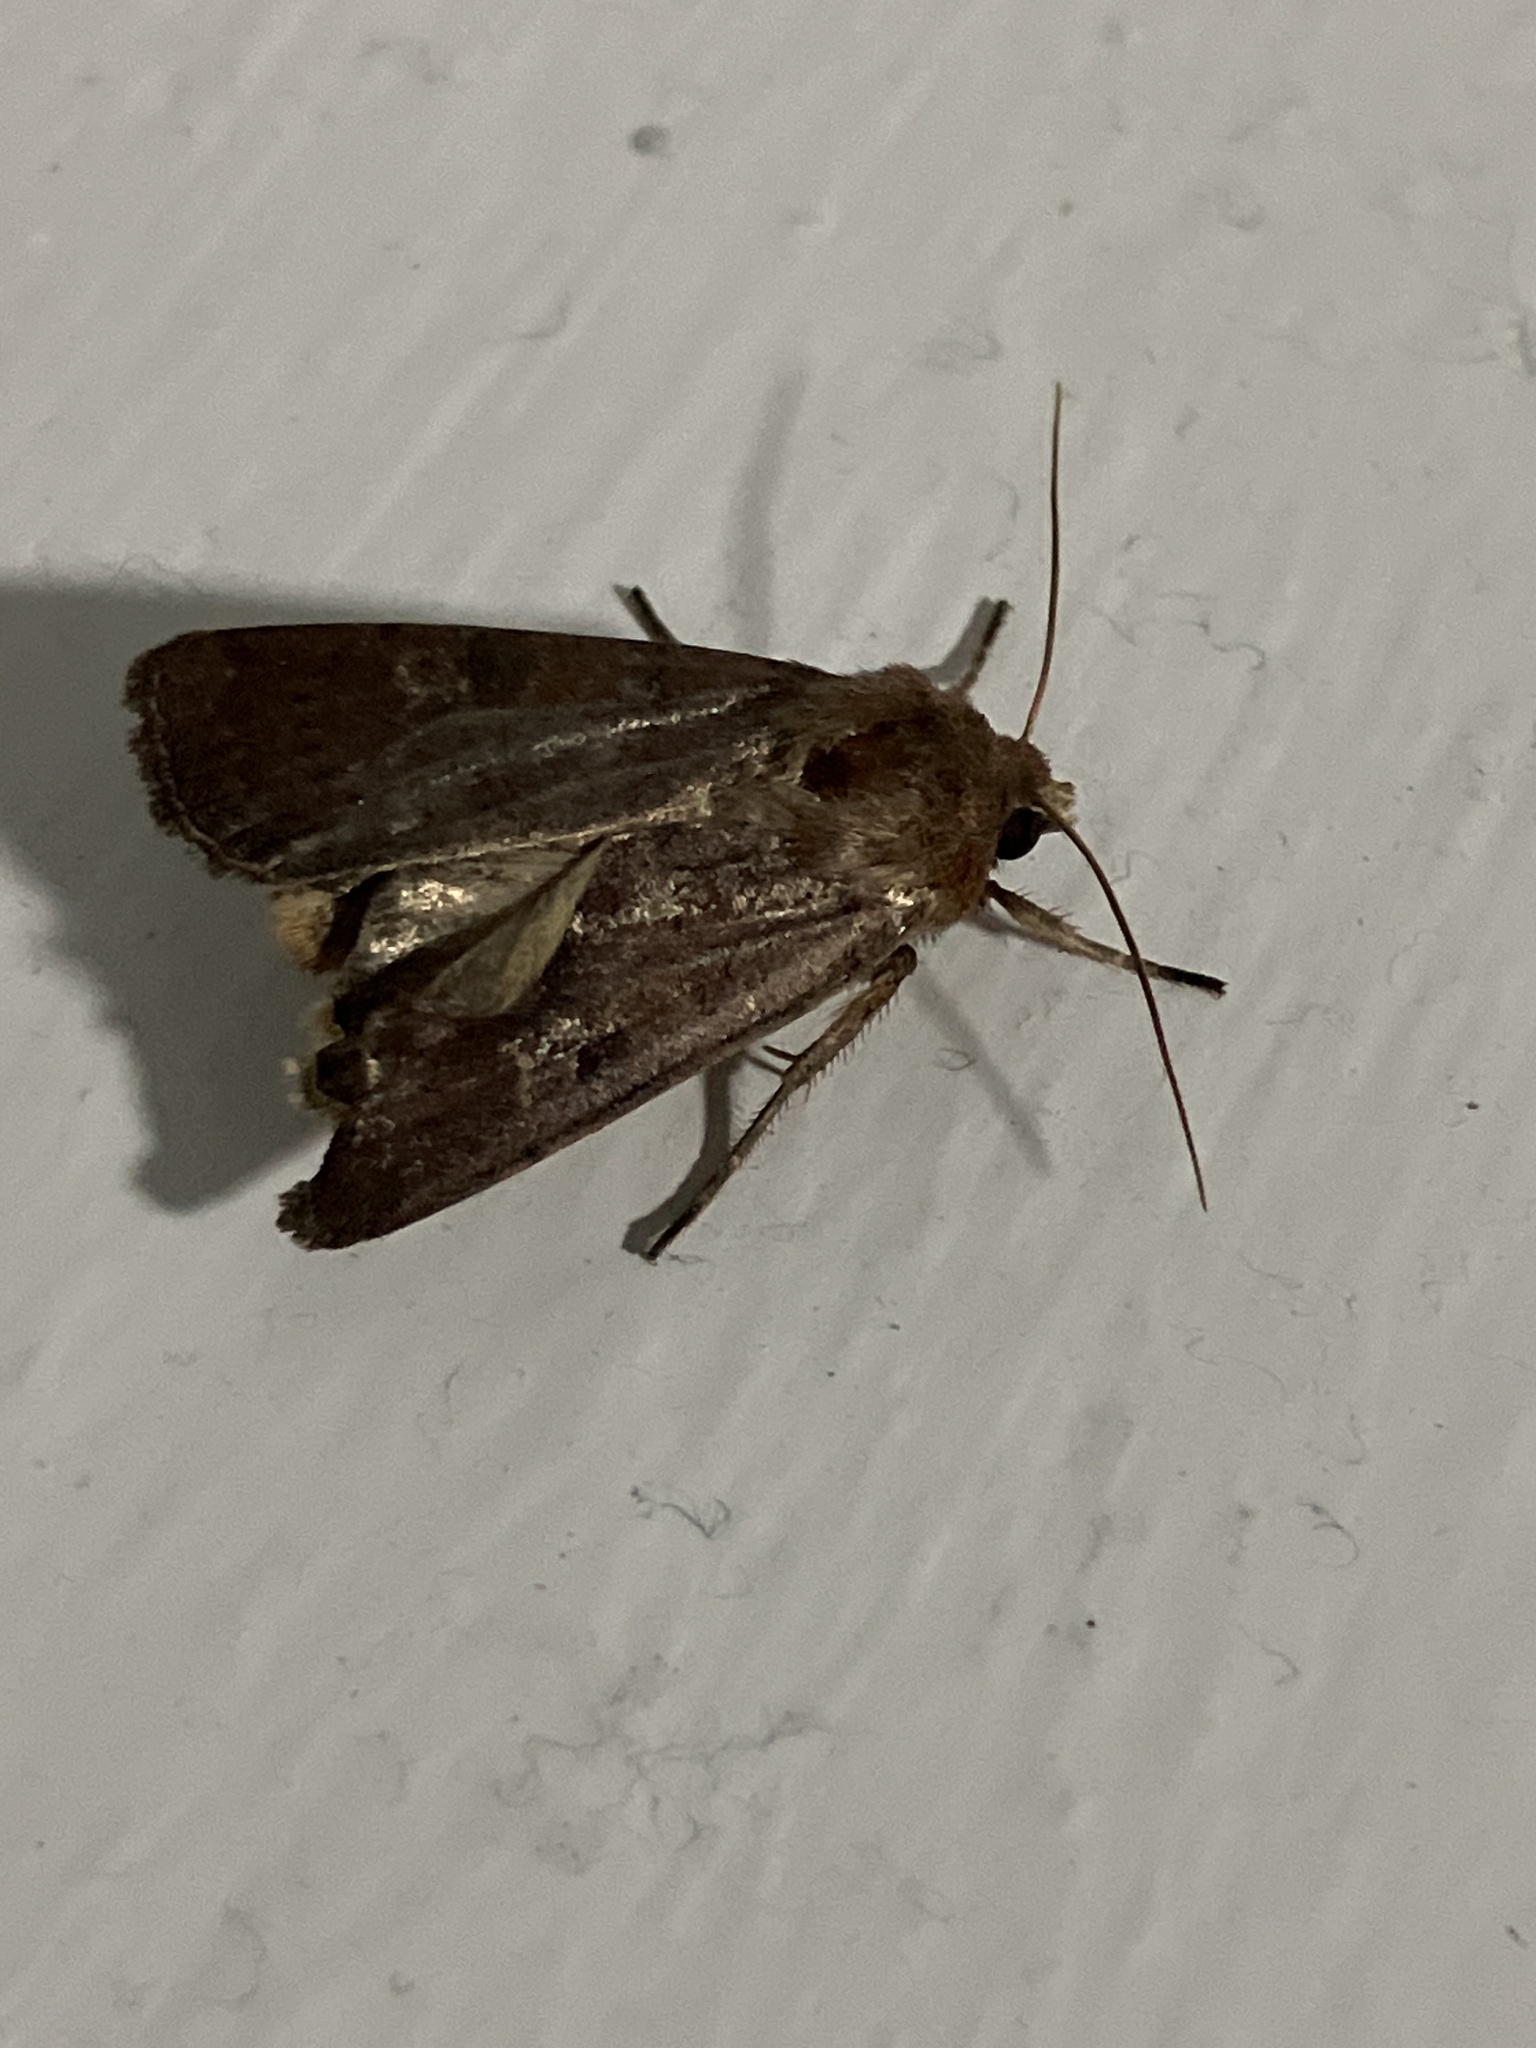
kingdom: Animalia
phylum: Arthropoda
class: Insecta
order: Lepidoptera
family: Noctuidae
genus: Xestia
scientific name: Xestia xanthographa
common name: Square-spot rustic
